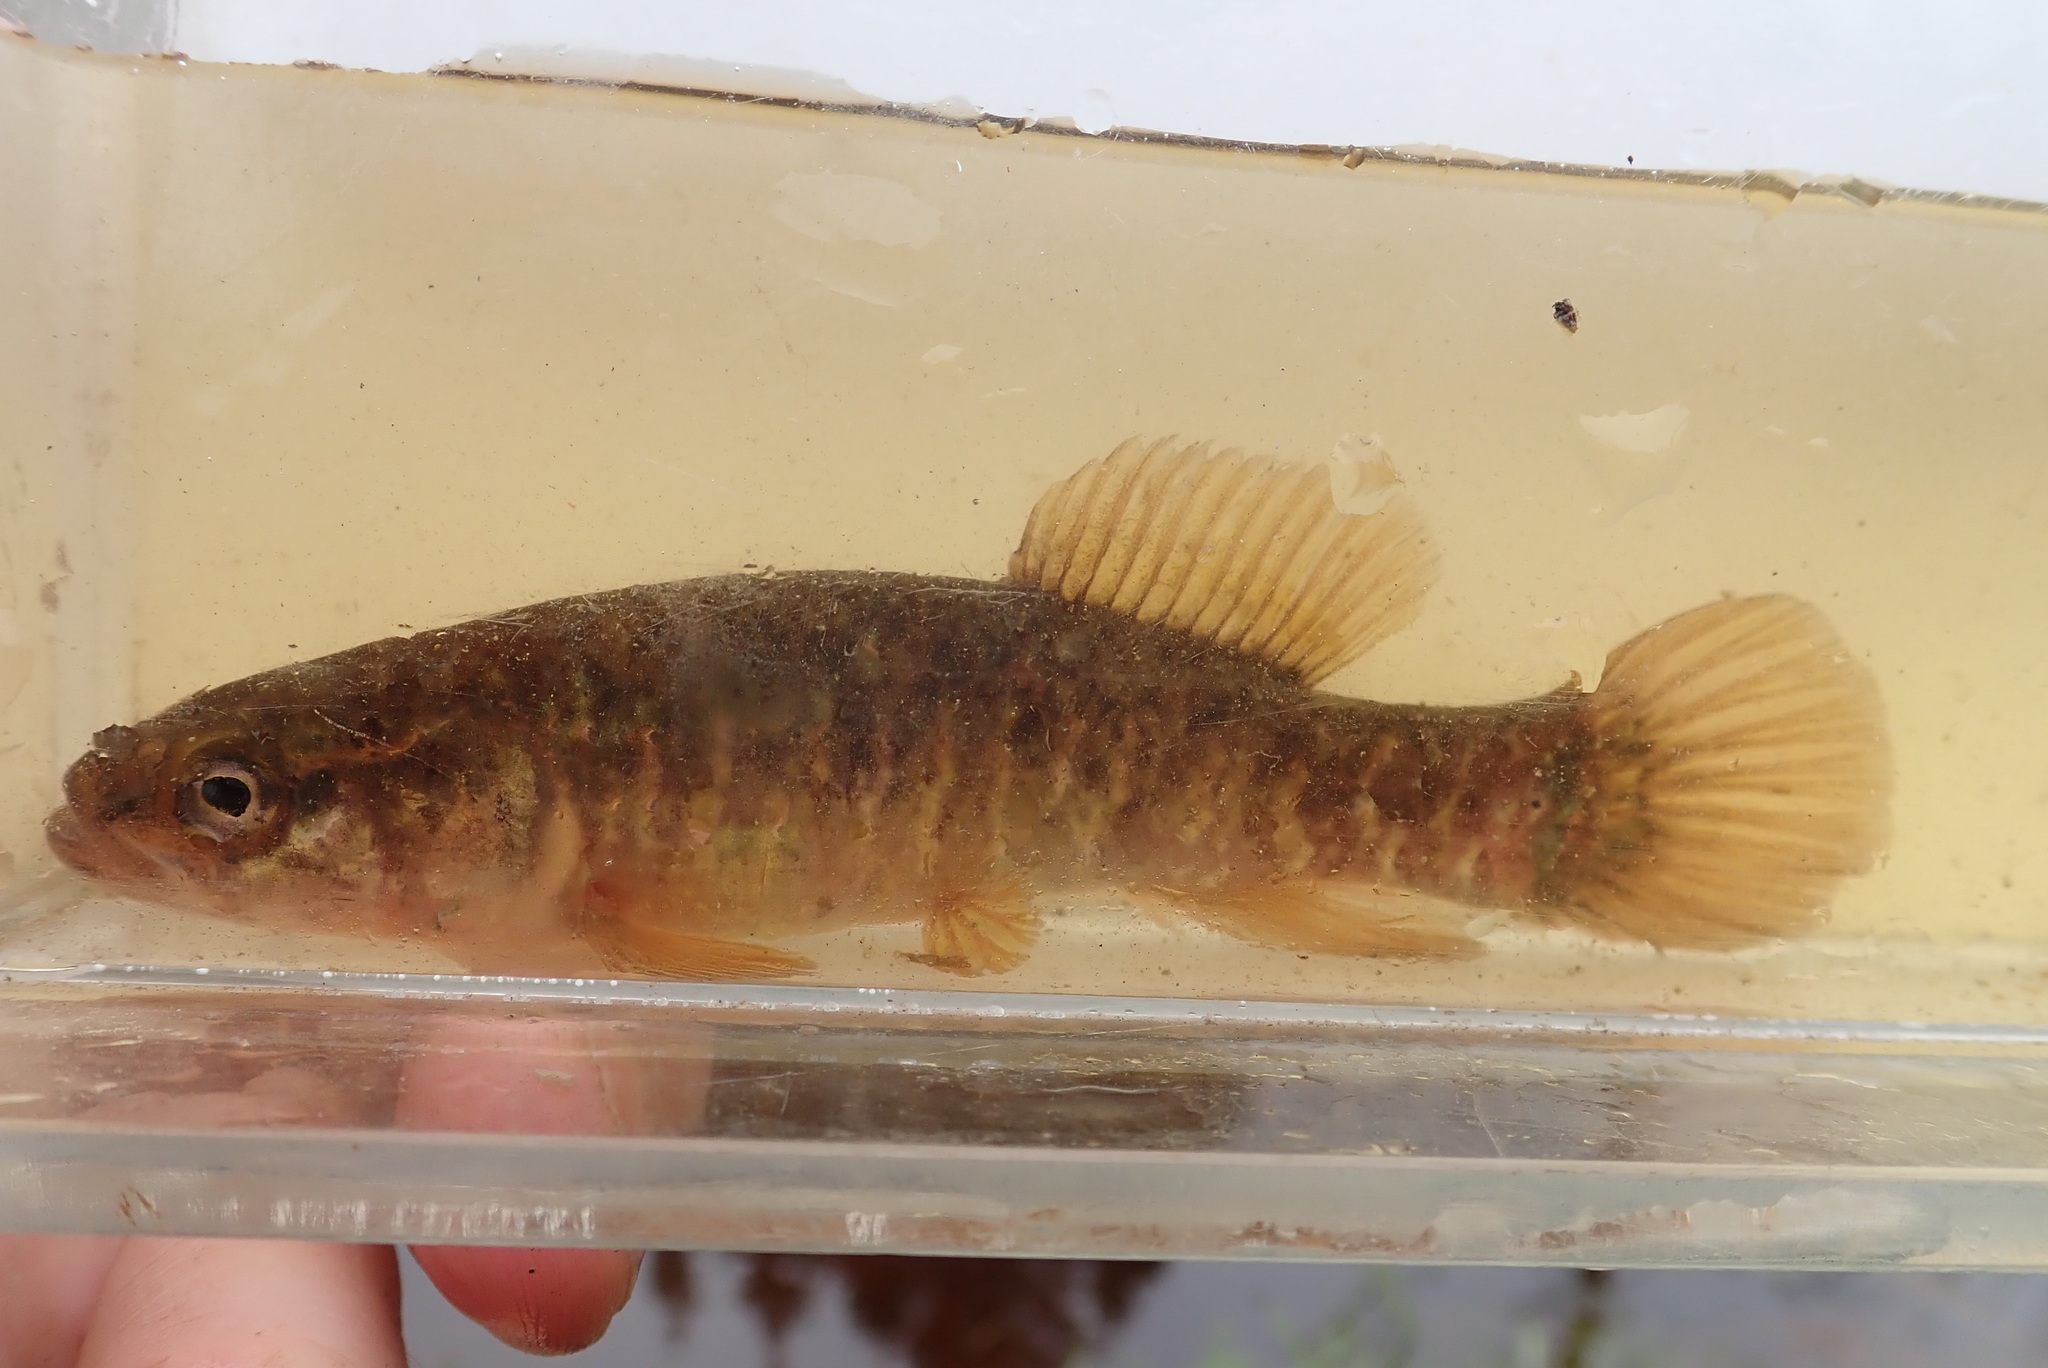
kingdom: Animalia
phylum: Chordata
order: Esociformes
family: Umbridae
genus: Umbra
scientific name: Umbra limi
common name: Central mudminnow
